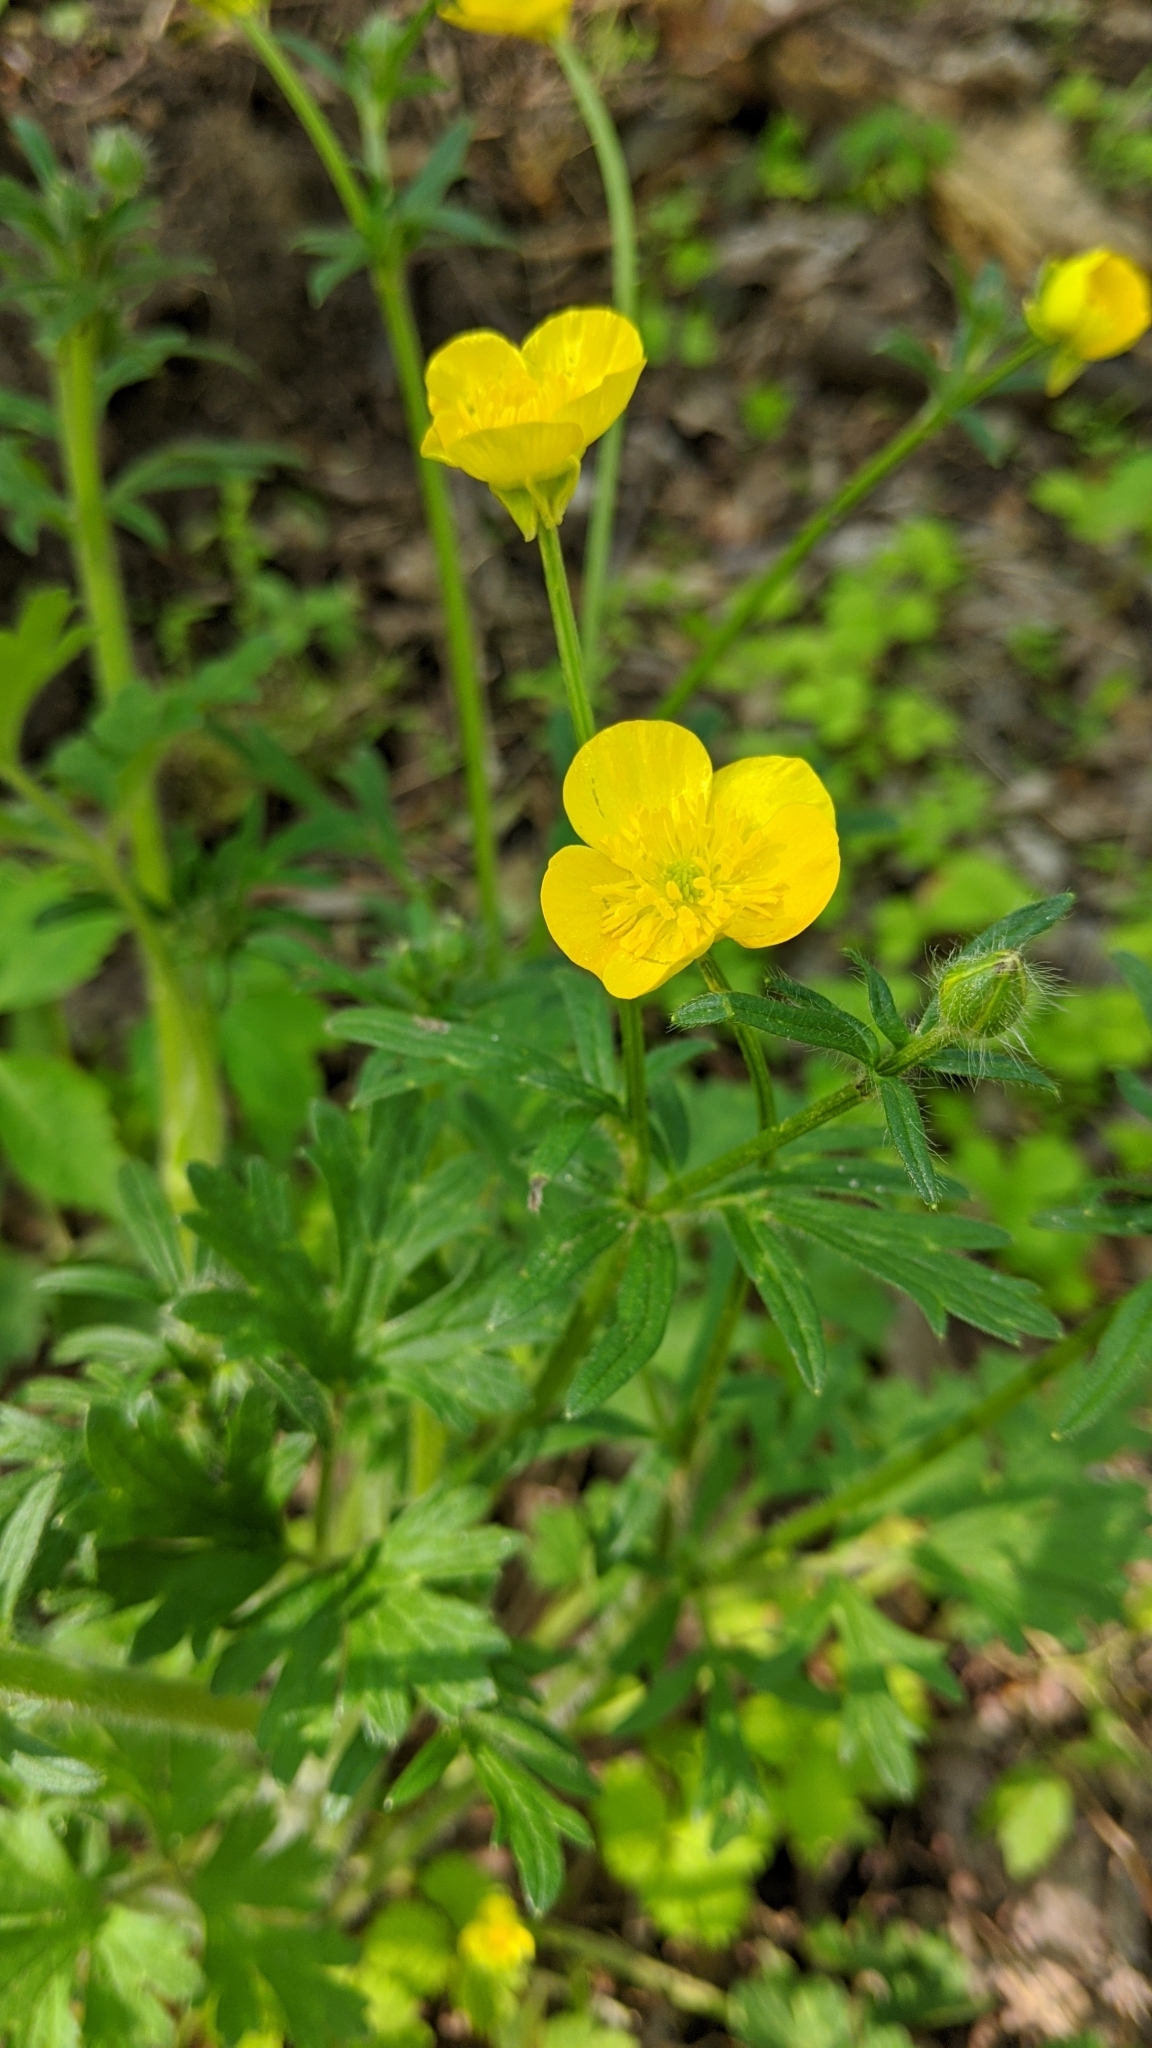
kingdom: Plantae
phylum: Tracheophyta
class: Magnoliopsida
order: Ranunculales
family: Ranunculaceae
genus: Ranunculus
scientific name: Ranunculus acris
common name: Meadow buttercup
